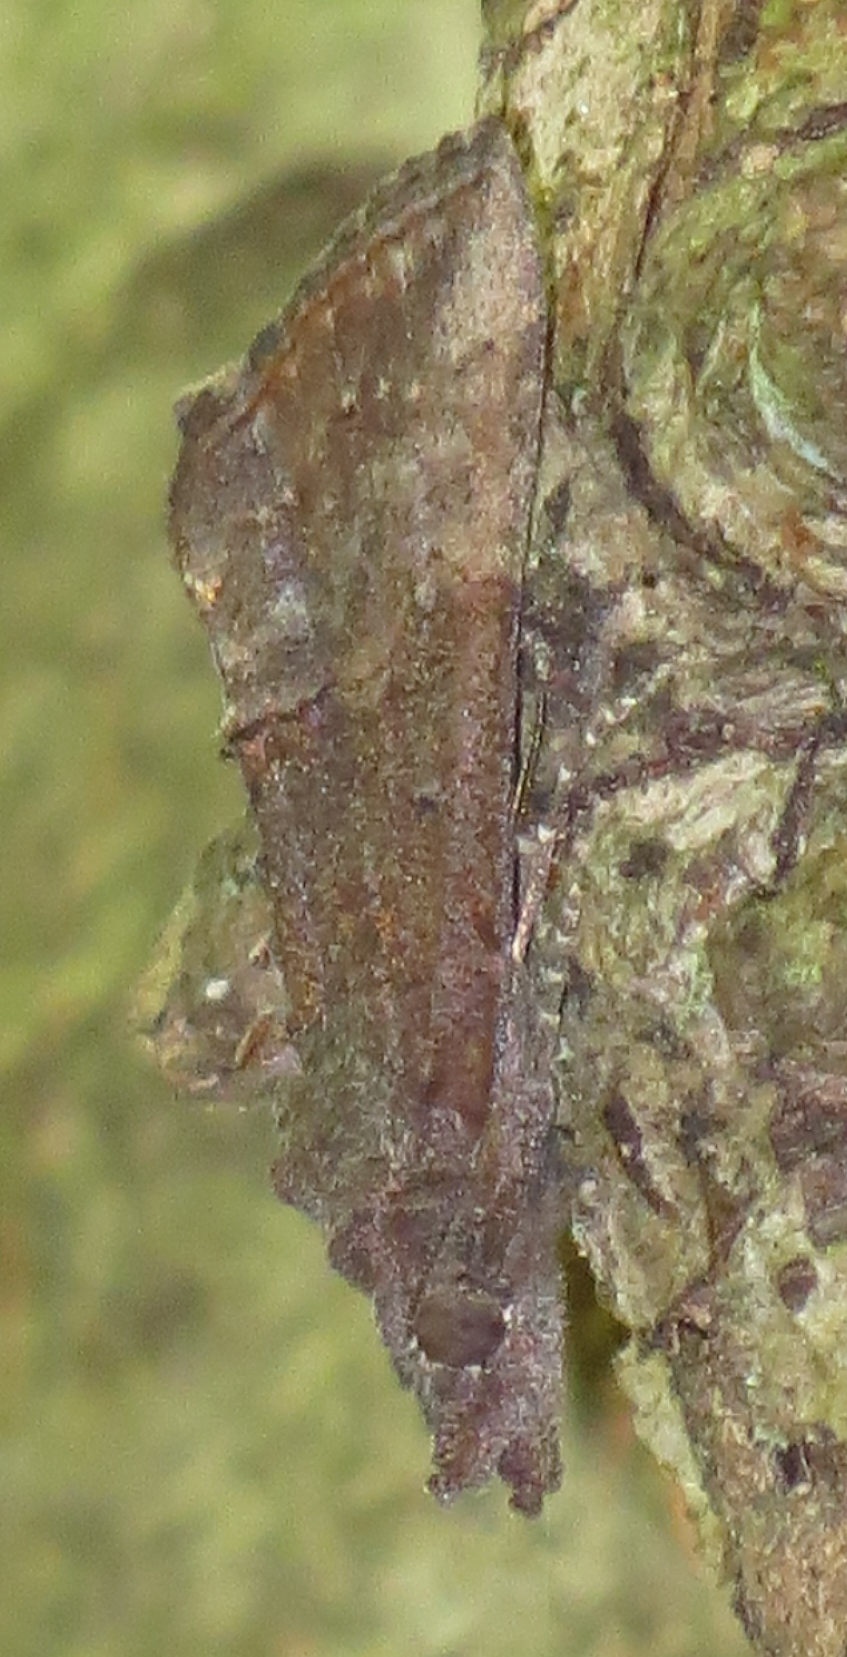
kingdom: Animalia
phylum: Arthropoda
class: Insecta
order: Lepidoptera
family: Erebidae
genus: Hypena
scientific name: Hypena scabra
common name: Green cloverworm
